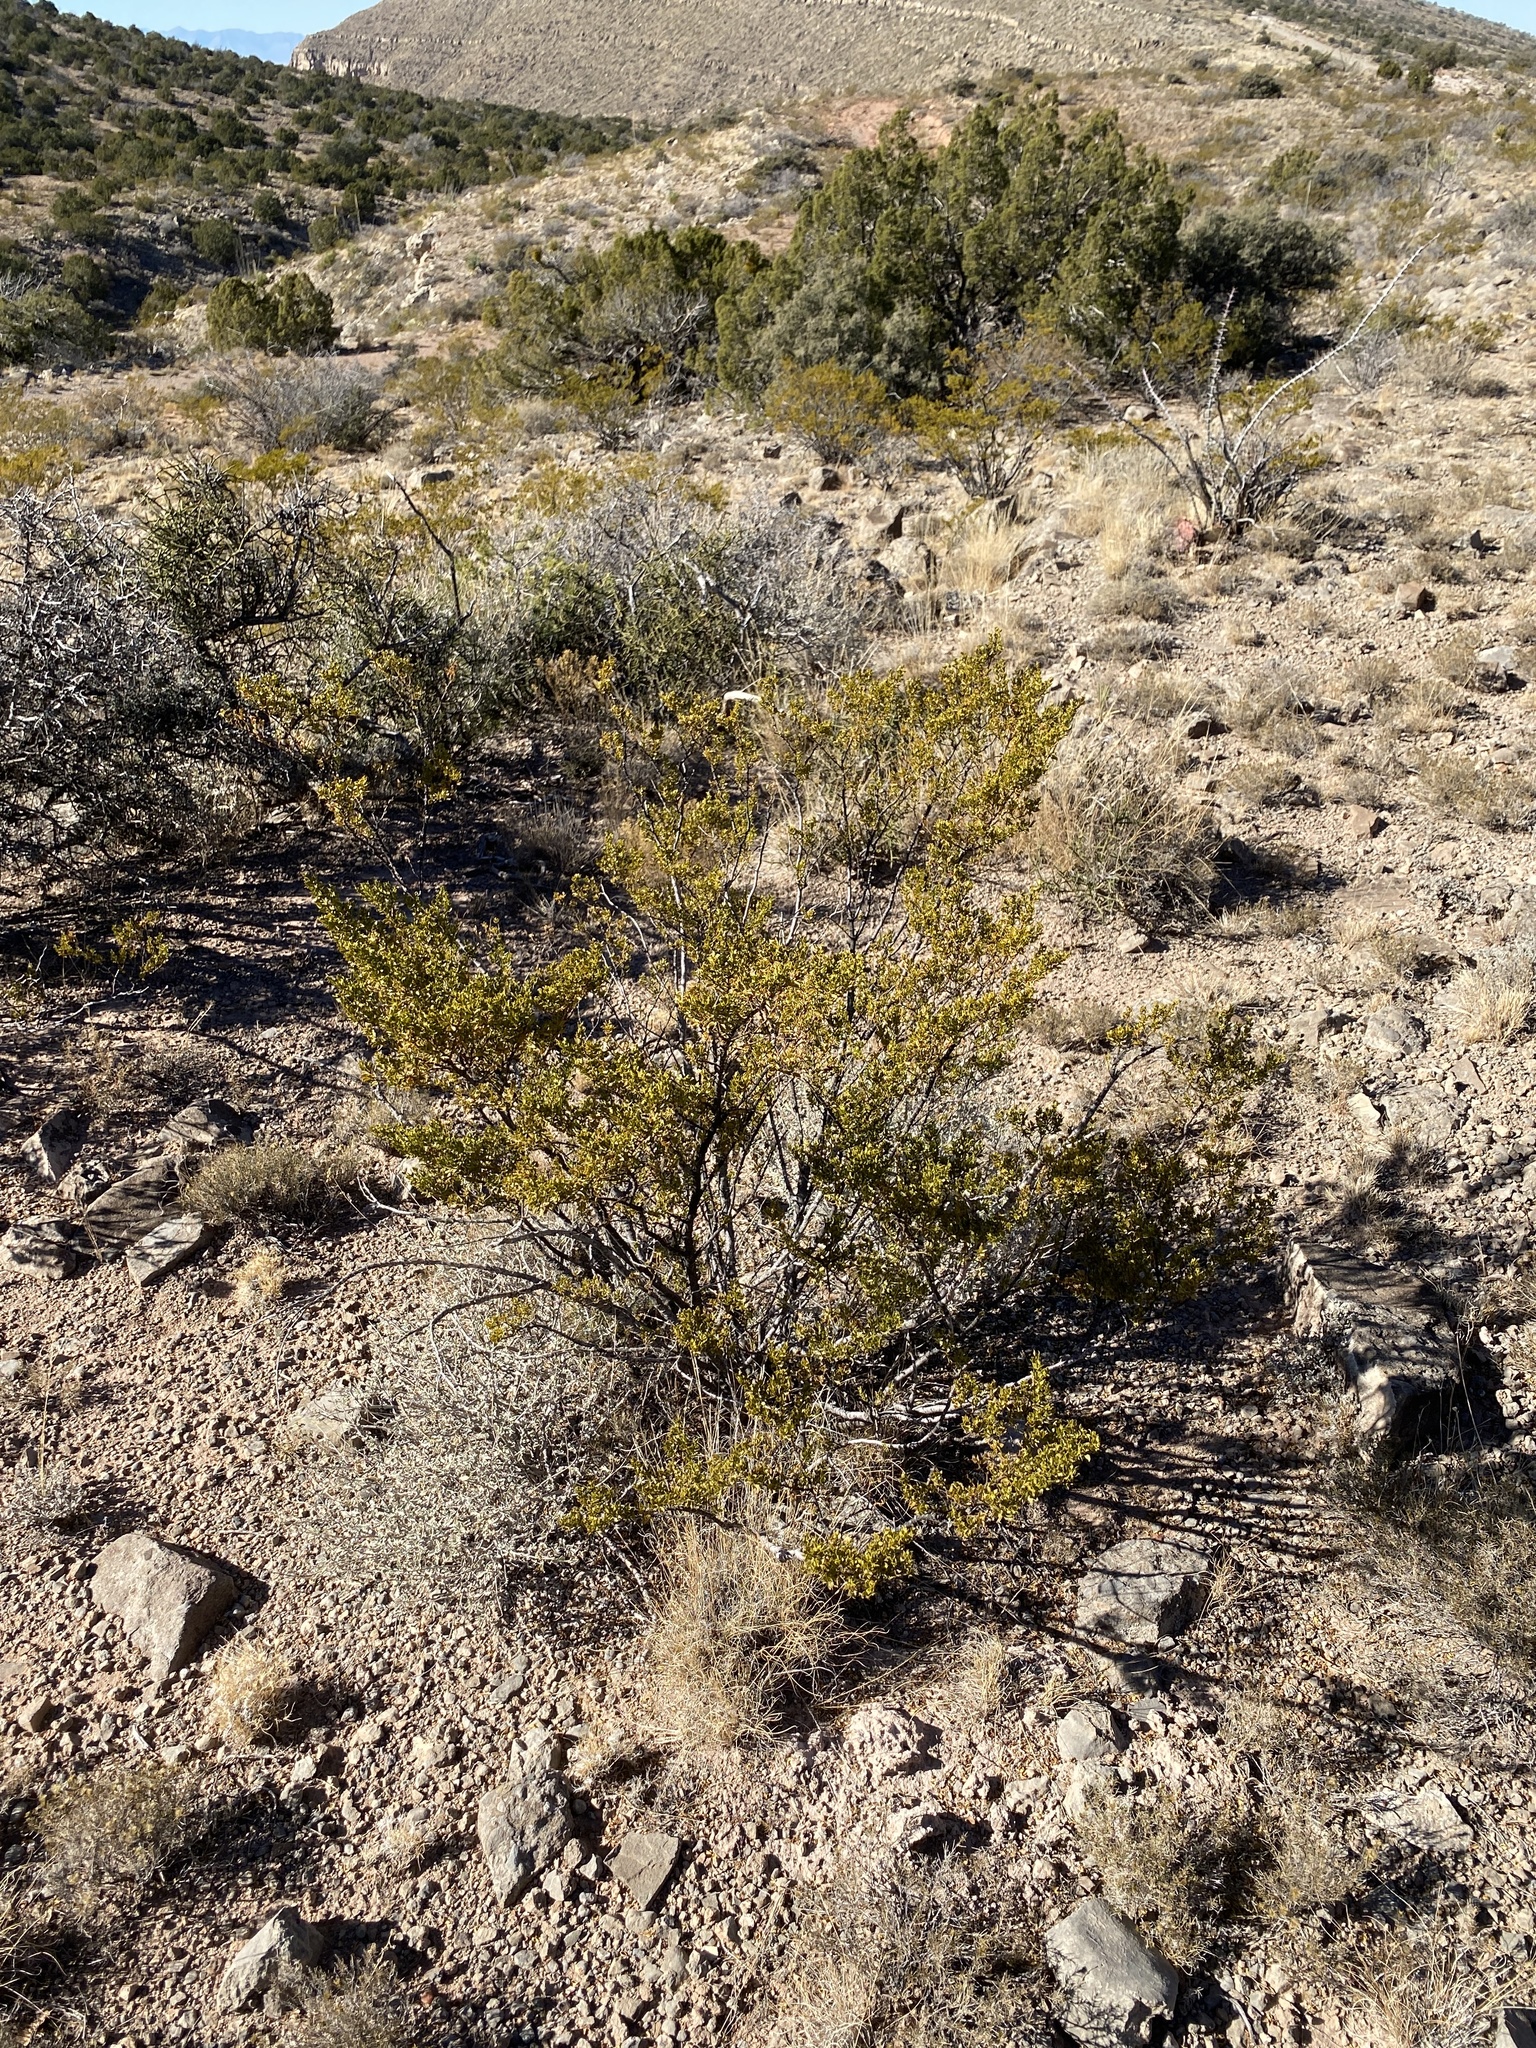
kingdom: Plantae
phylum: Tracheophyta
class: Magnoliopsida
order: Zygophyllales
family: Zygophyllaceae
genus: Larrea
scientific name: Larrea tridentata
